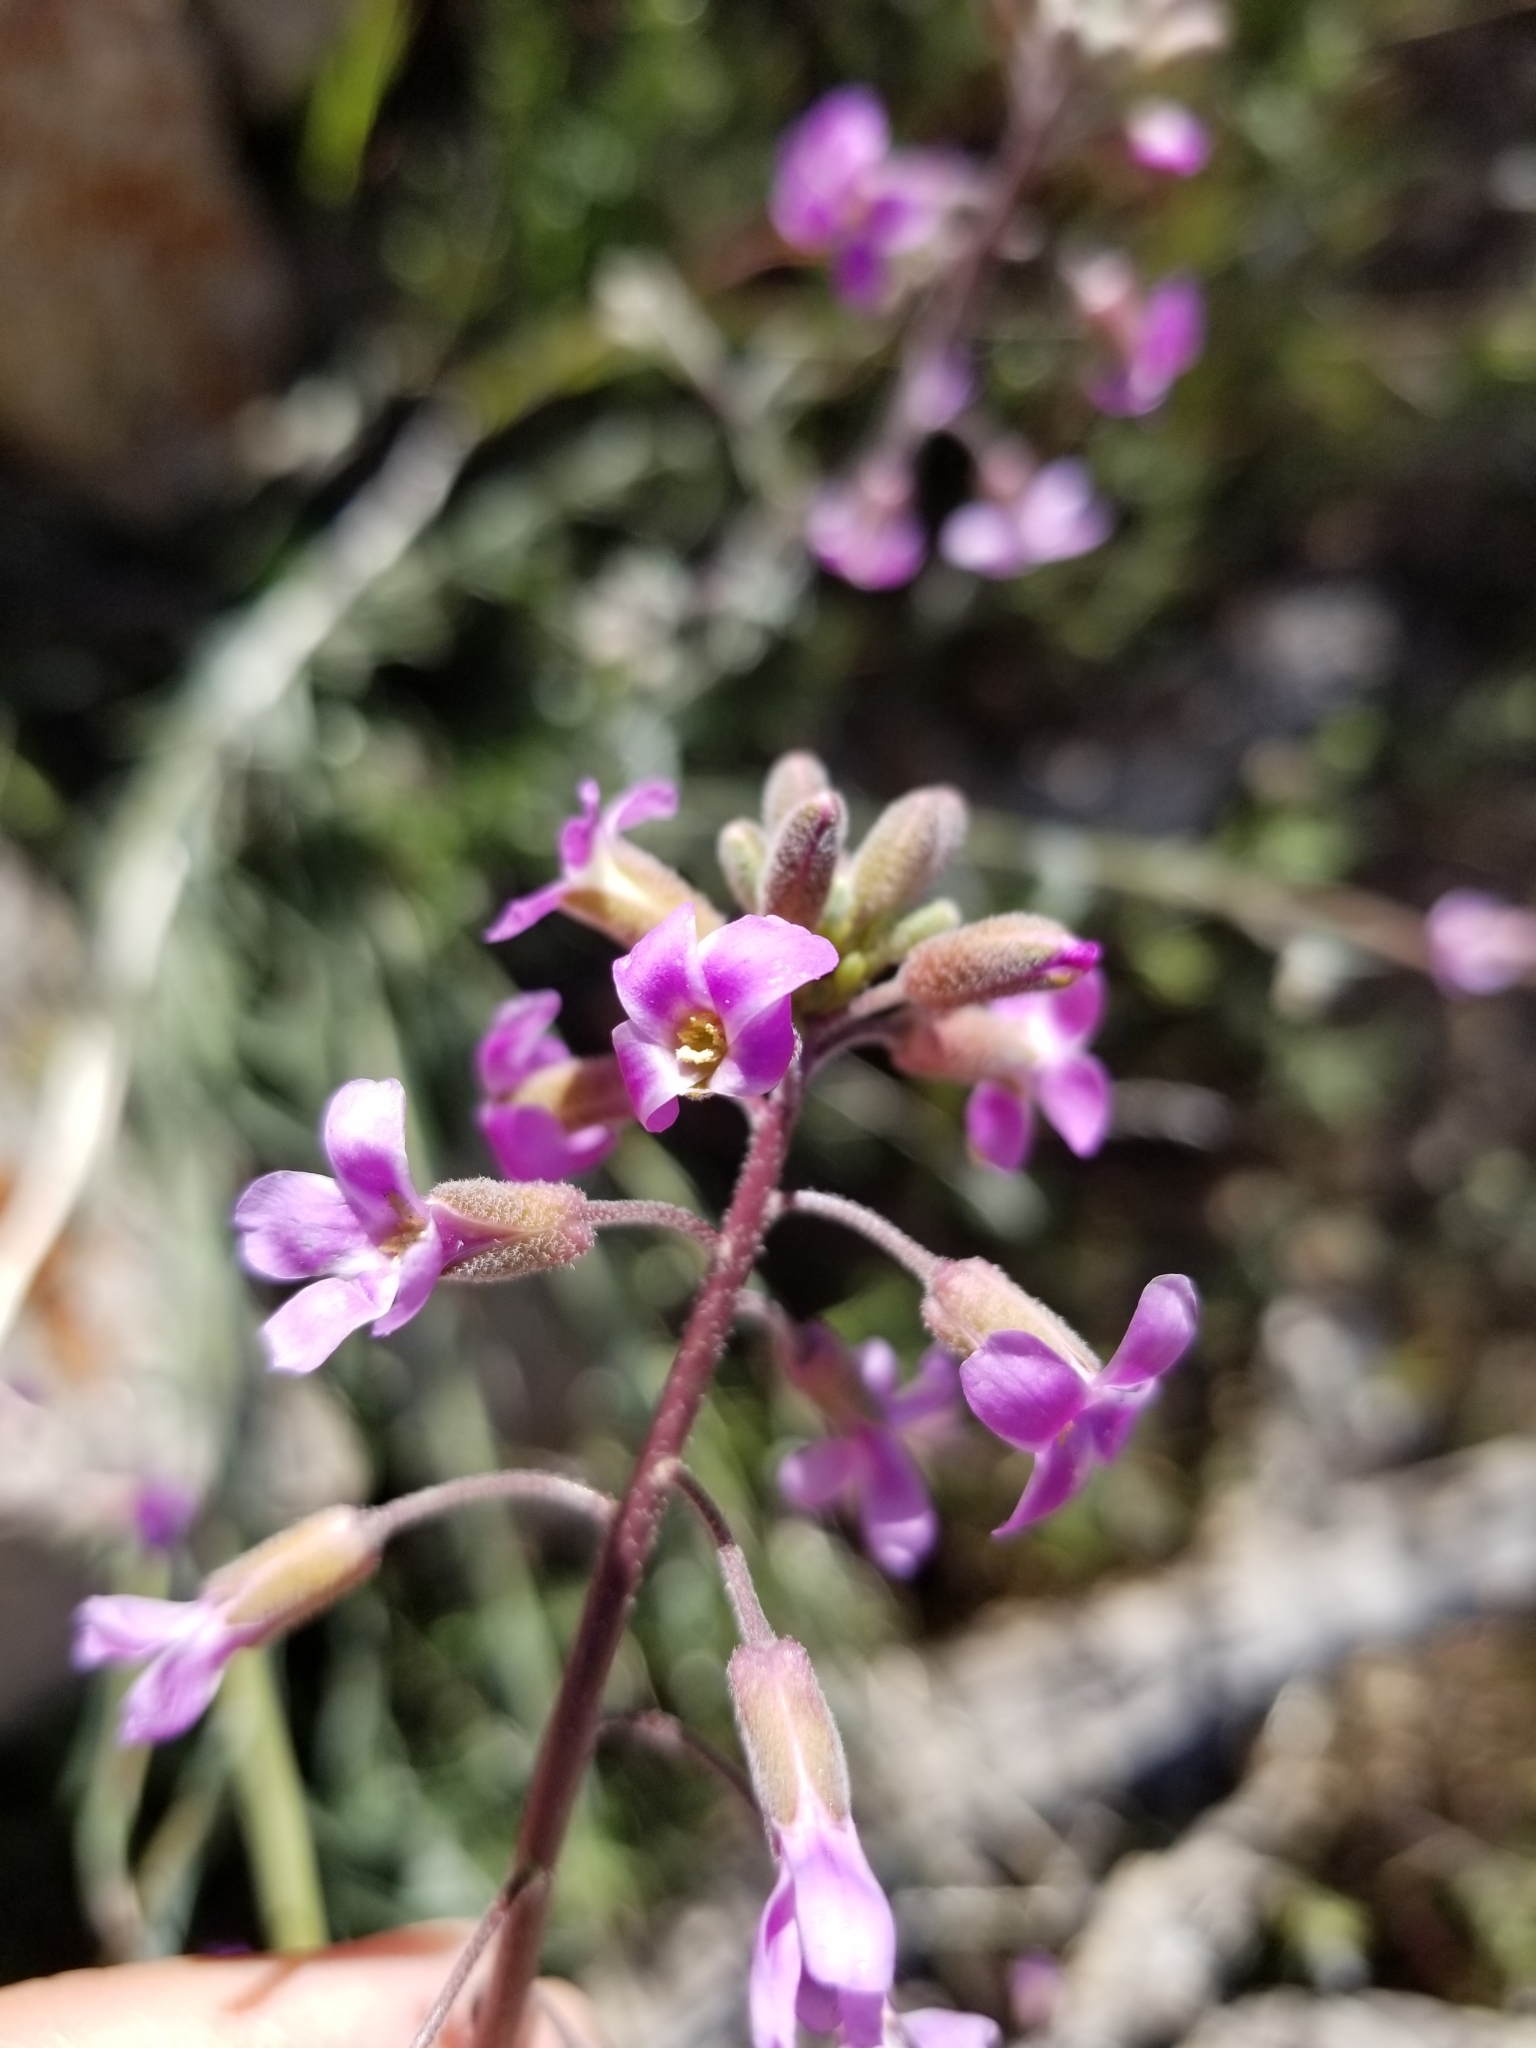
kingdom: Plantae
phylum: Tracheophyta
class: Magnoliopsida
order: Brassicales
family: Brassicaceae
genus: Boechera
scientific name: Boechera pulchra
